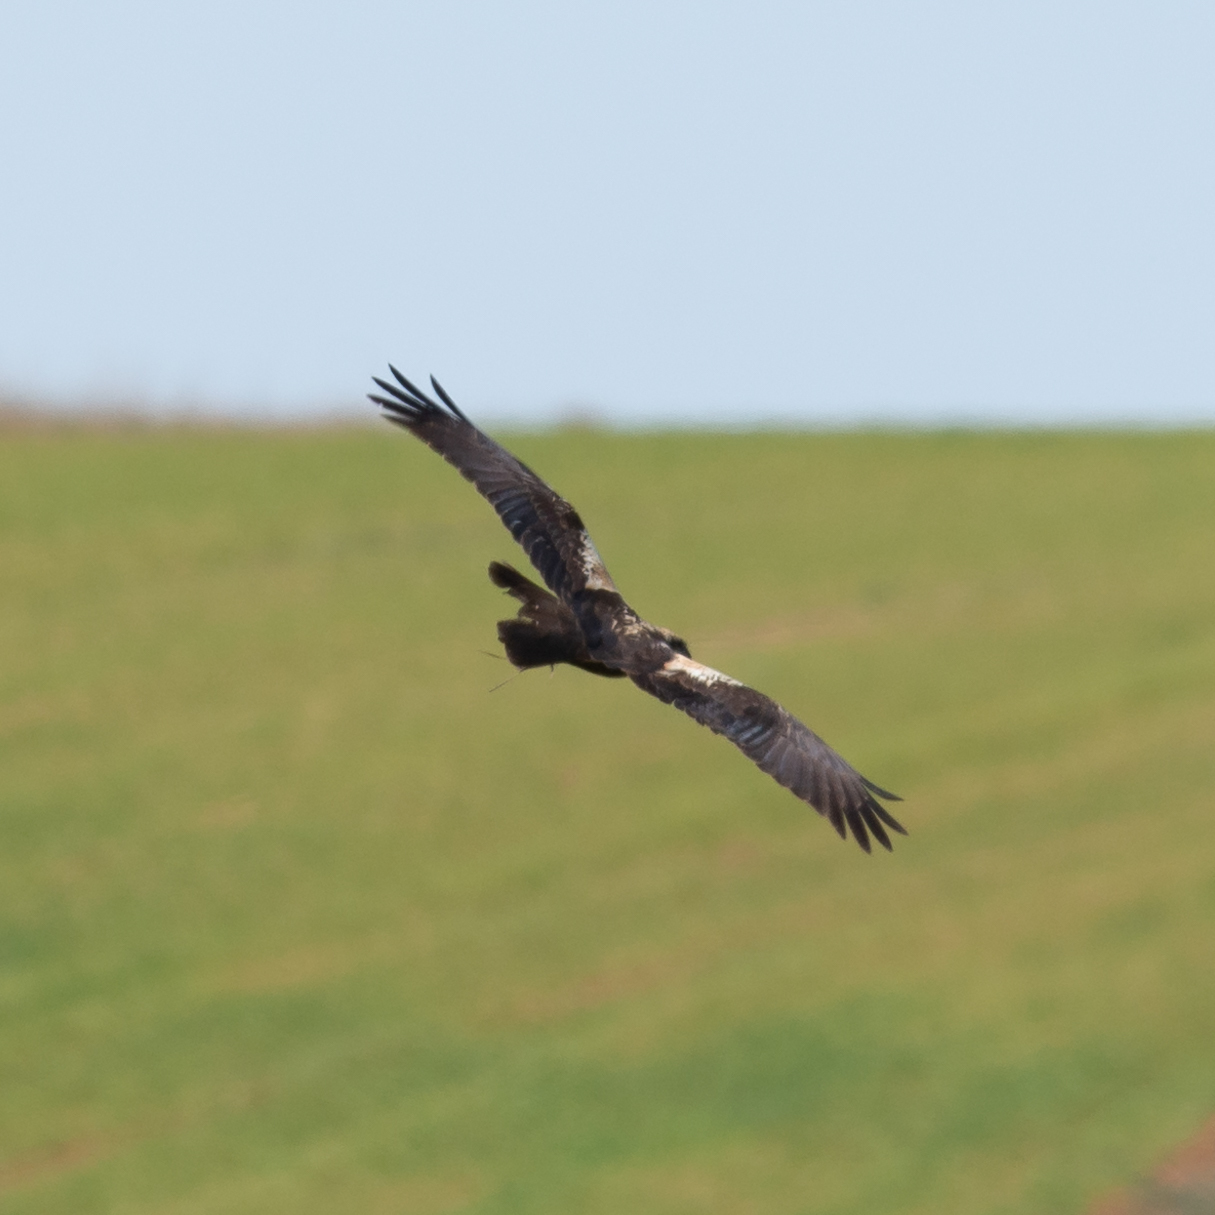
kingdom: Animalia
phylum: Chordata
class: Aves
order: Accipitriformes
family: Accipitridae
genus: Circus
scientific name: Circus aeruginosus
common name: Western marsh harrier
